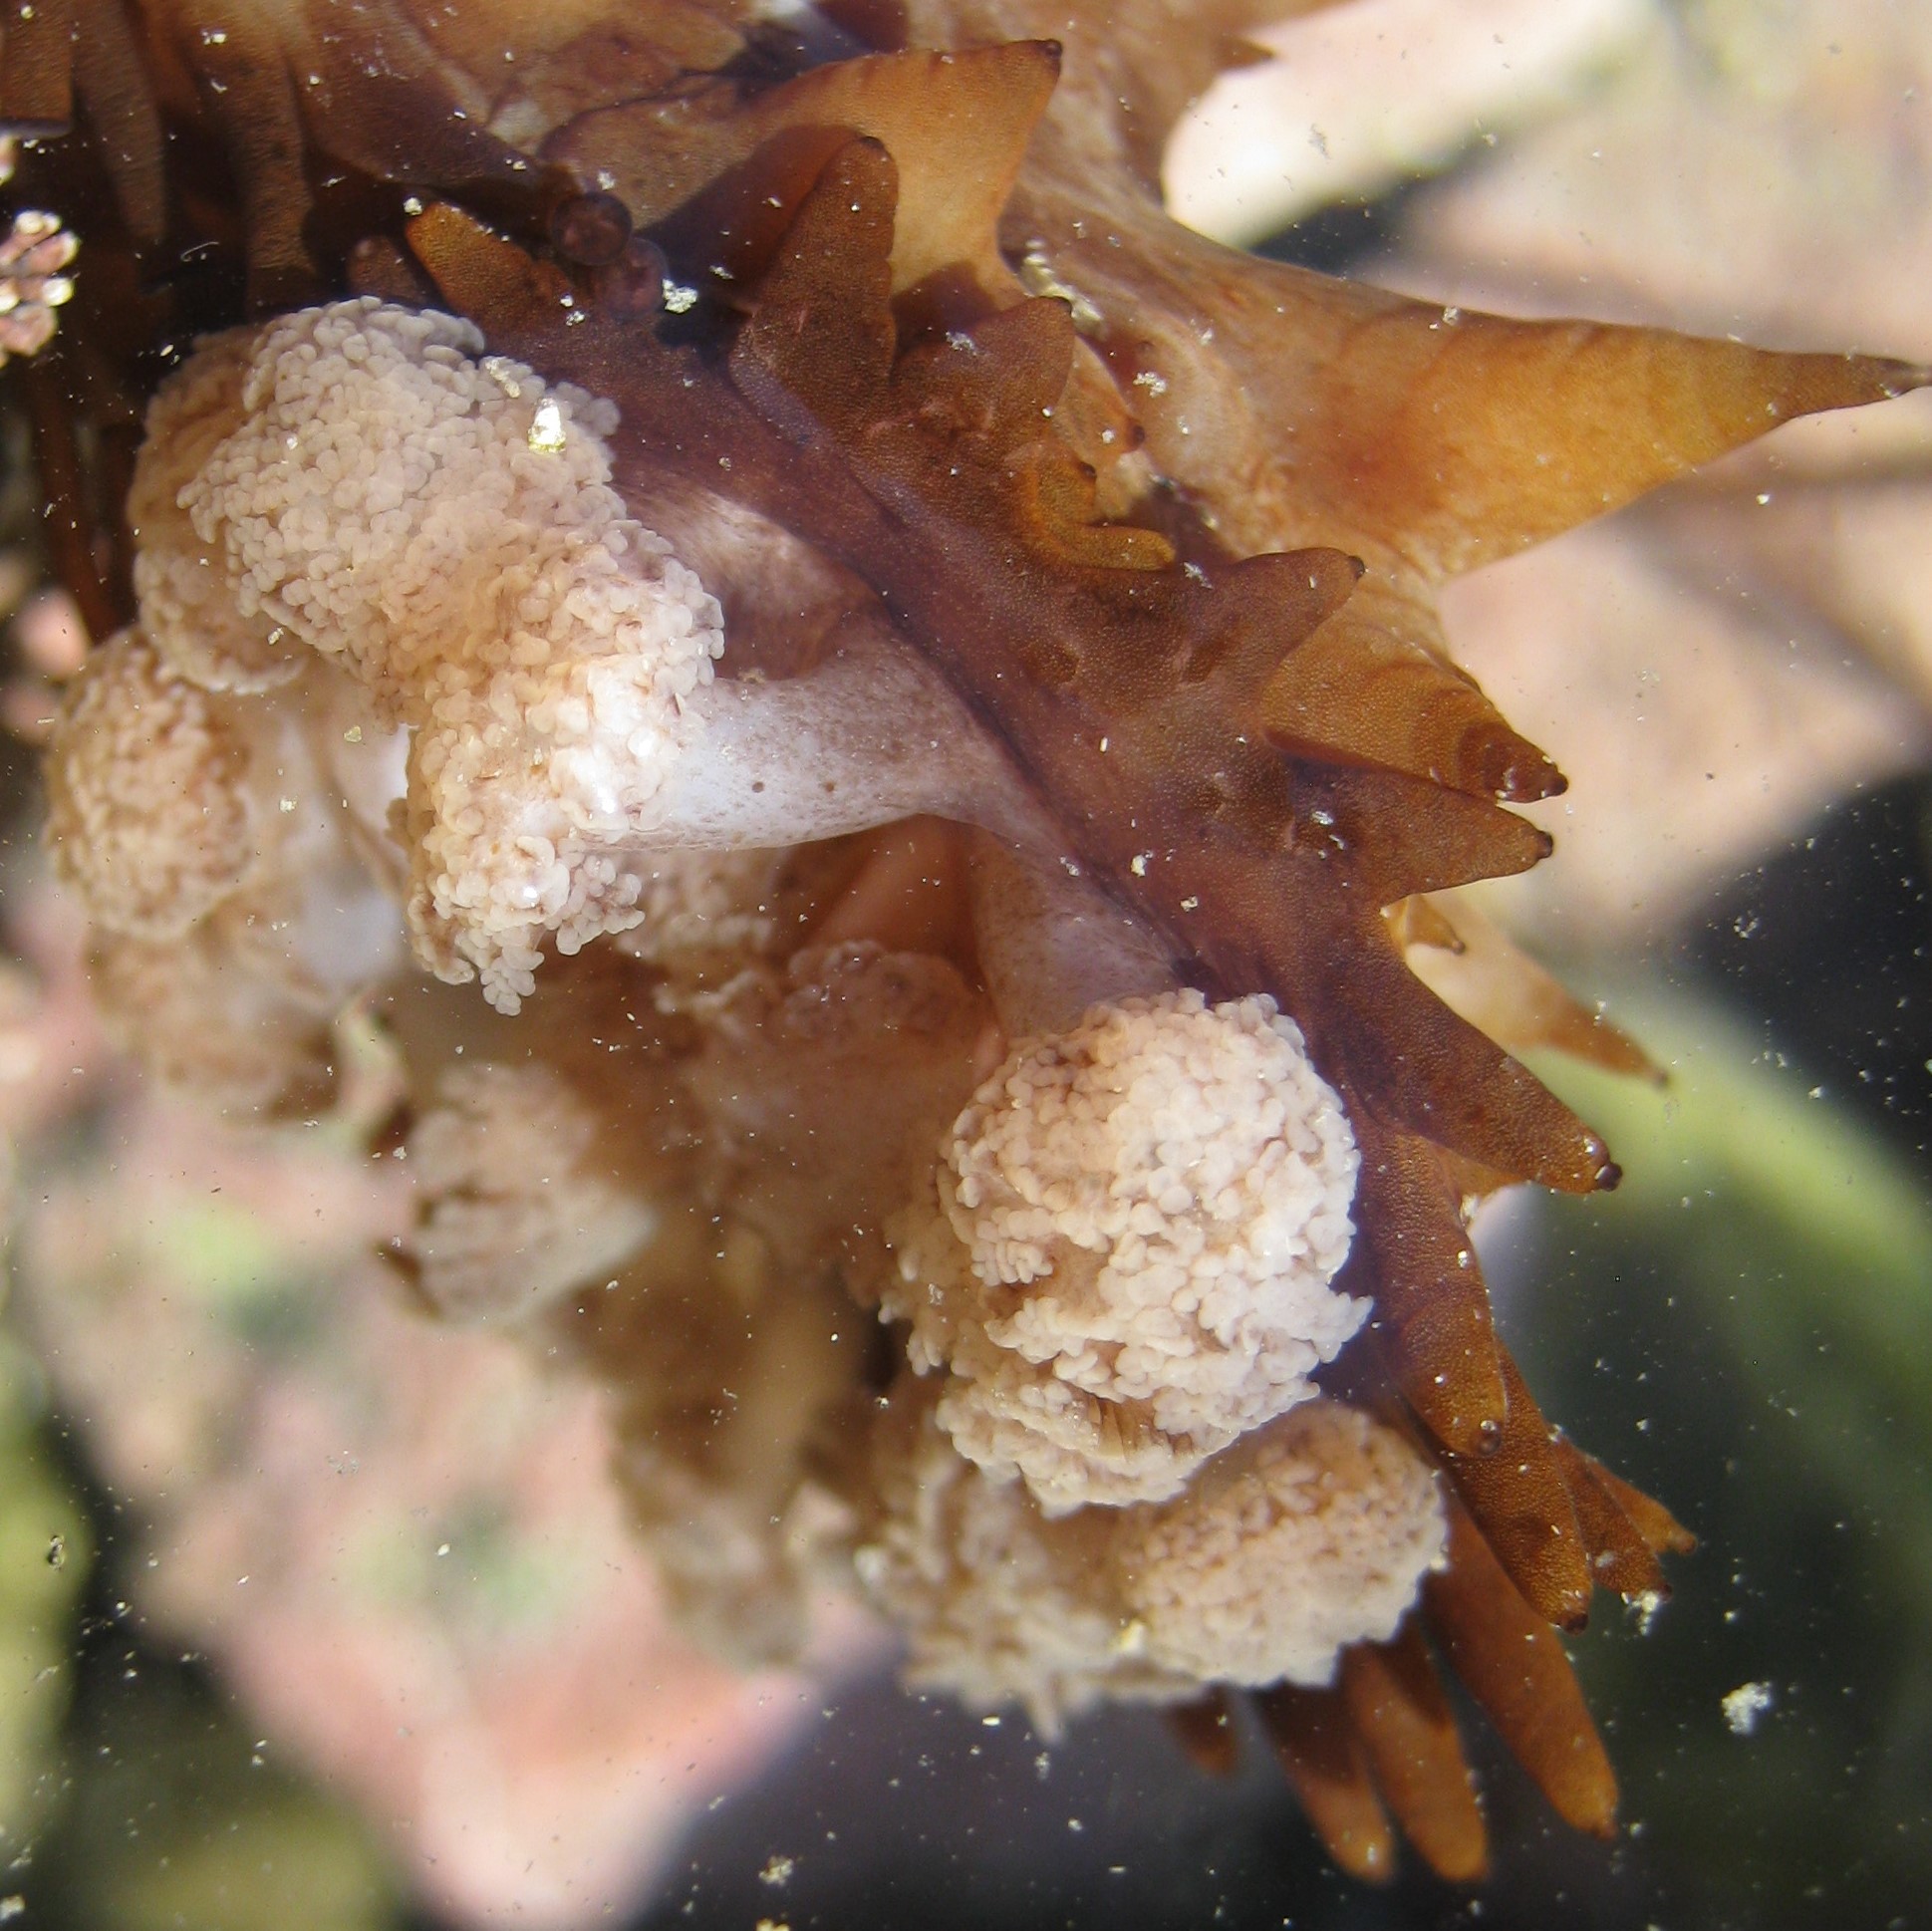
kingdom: Animalia
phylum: Echinodermata
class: Holothuroidea
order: Synallactida
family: Stichopodidae
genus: Australostichopus
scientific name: Australostichopus mollis
